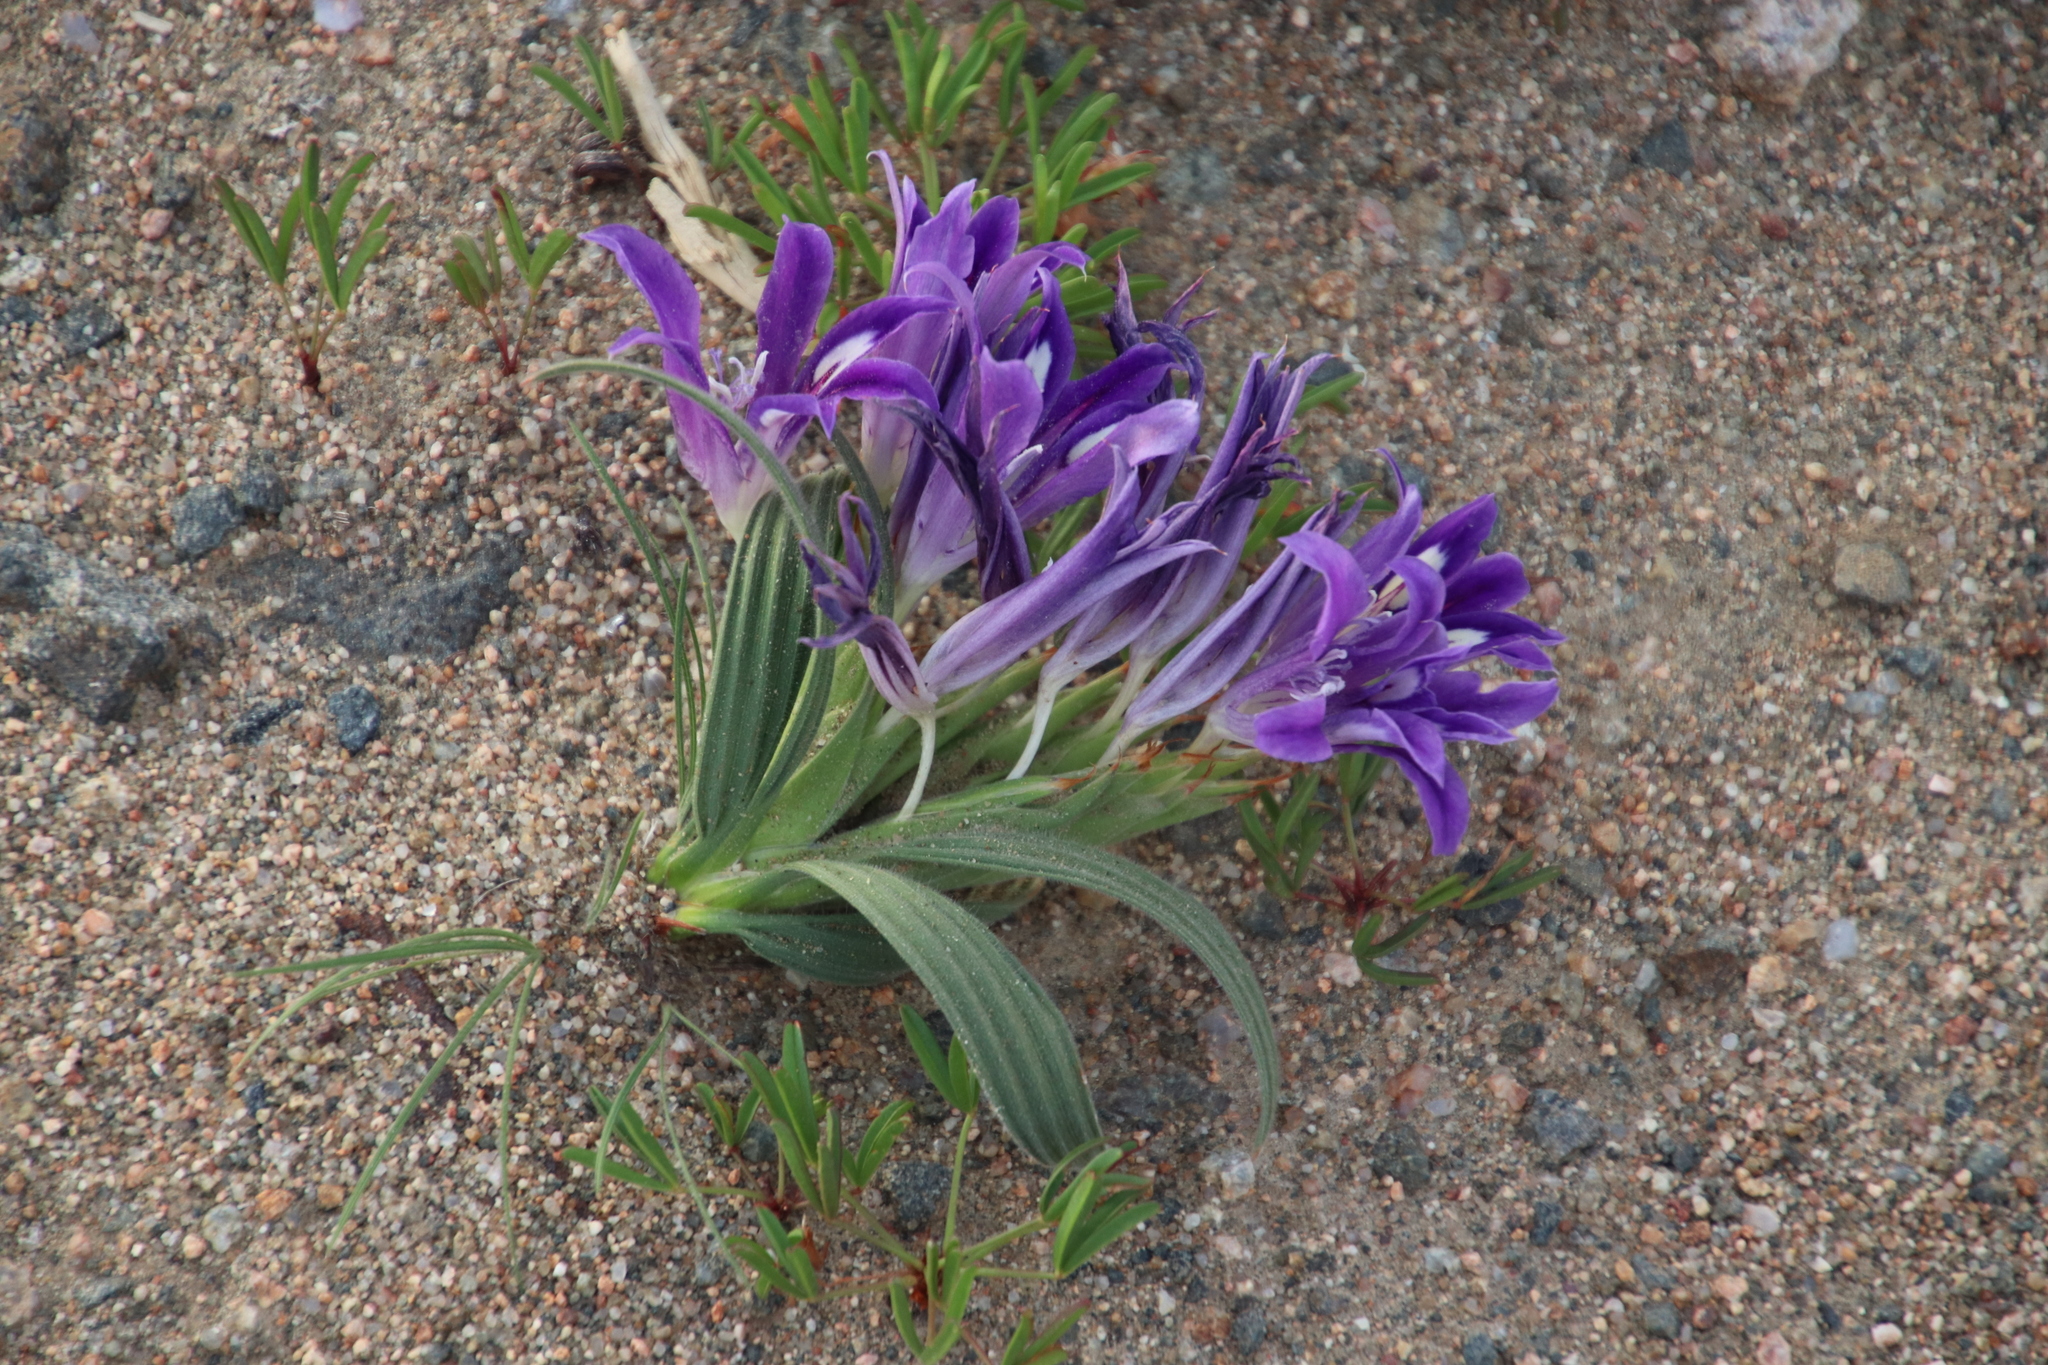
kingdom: Plantae
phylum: Tracheophyta
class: Liliopsida
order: Asparagales
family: Iridaceae
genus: Babiana
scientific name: Babiana curviscapa
